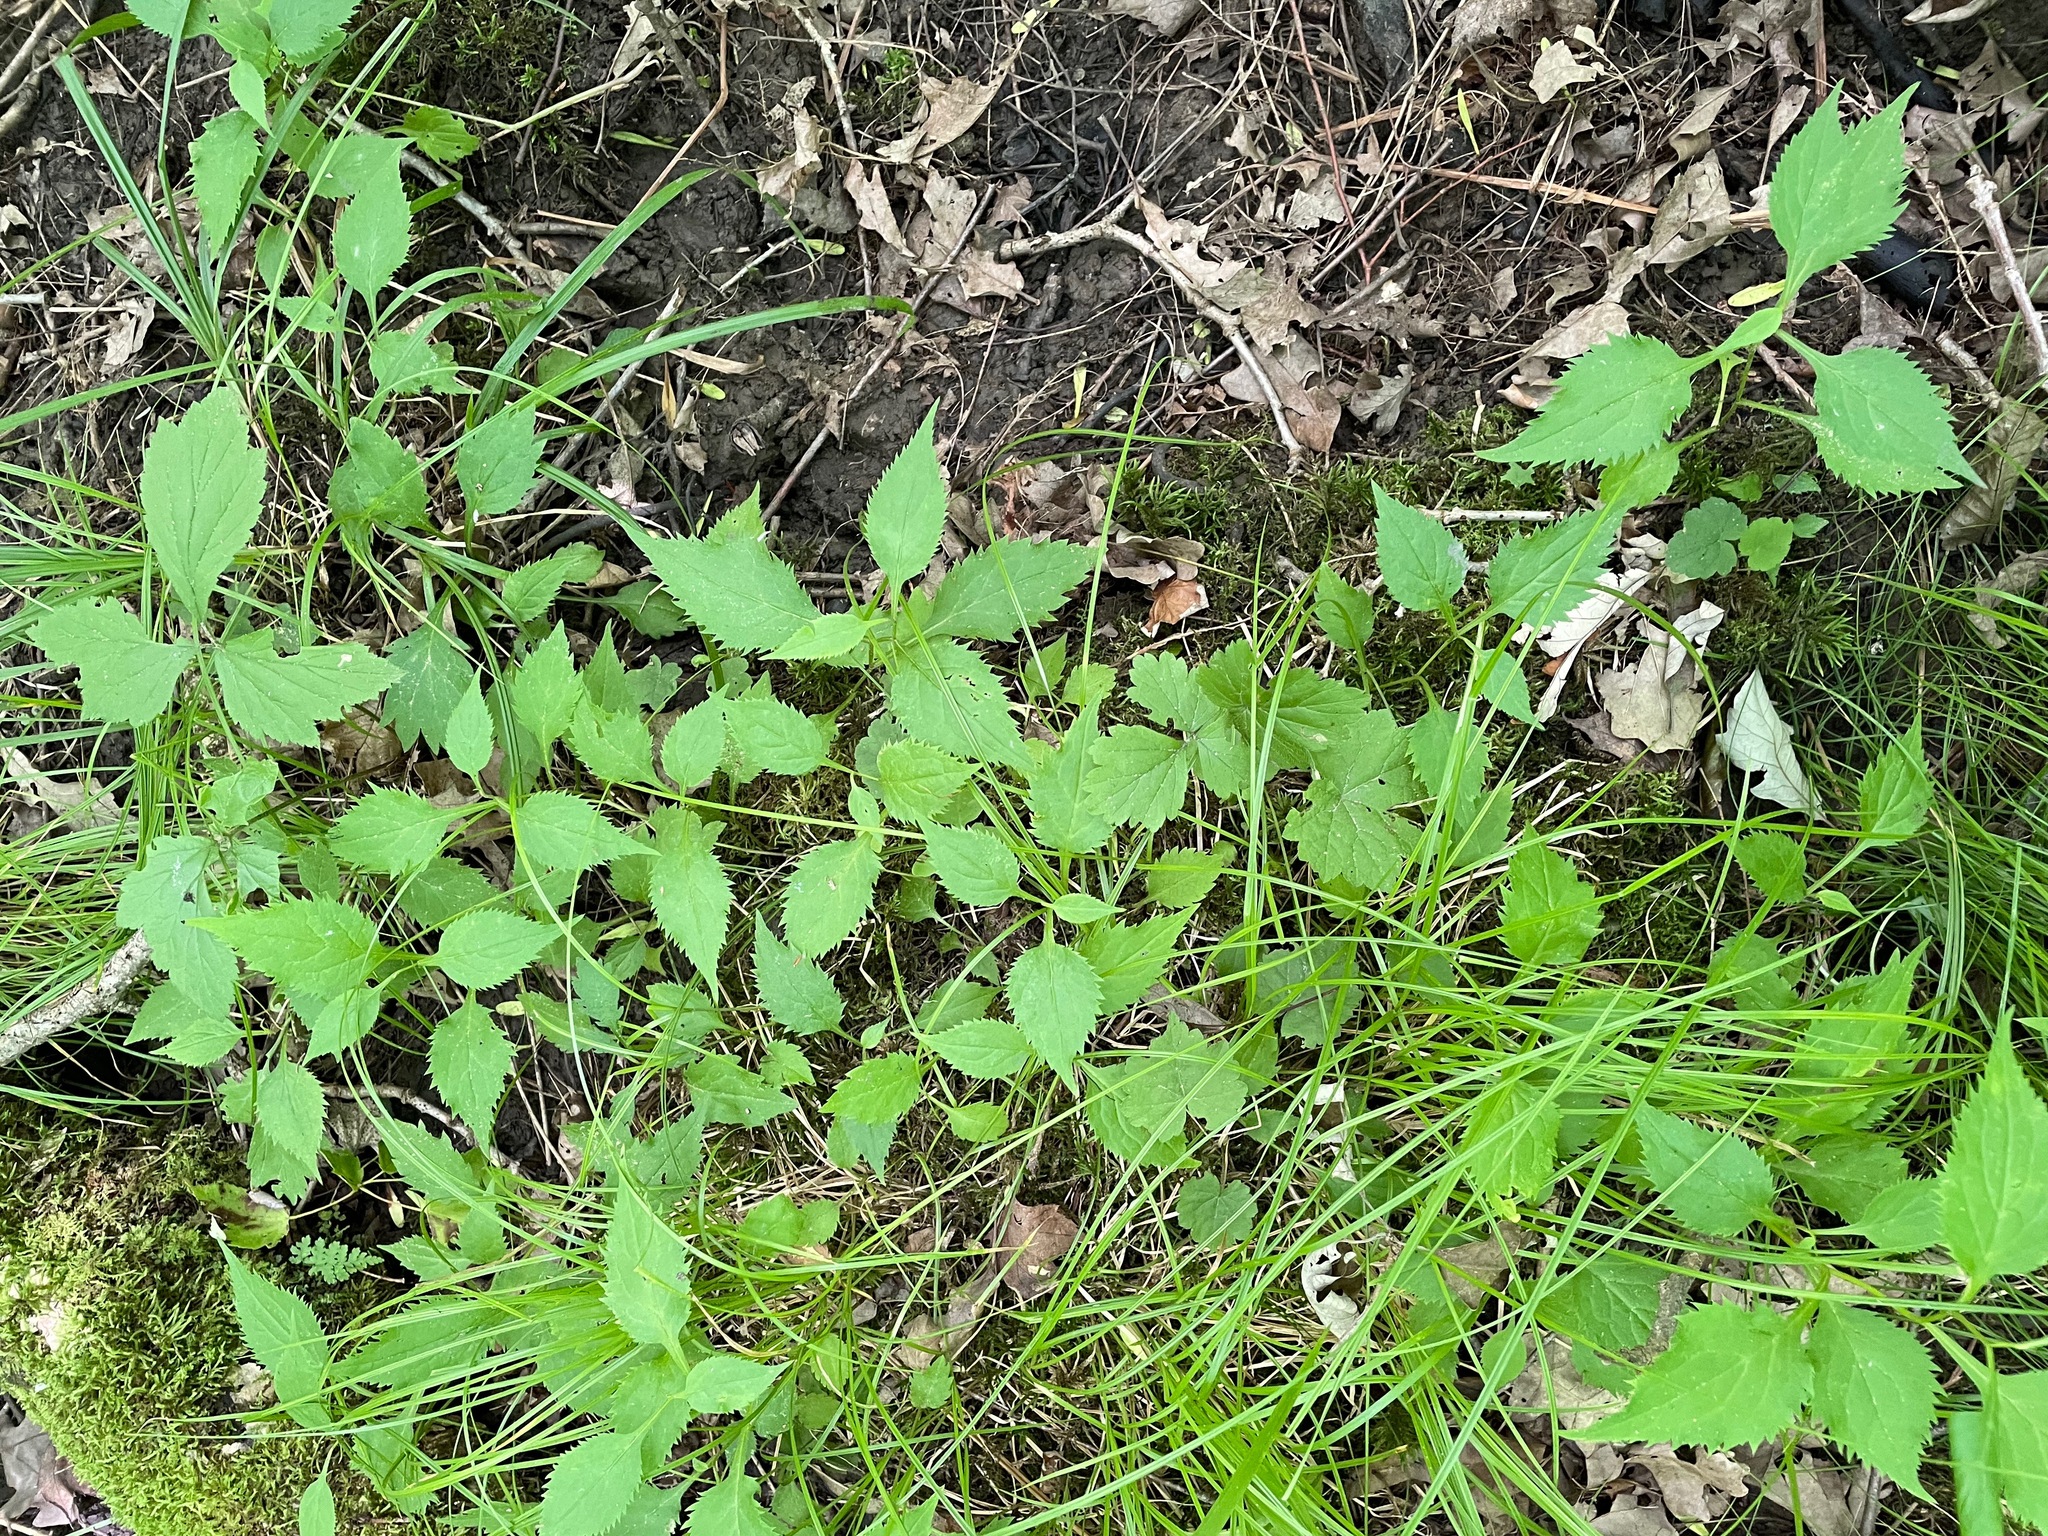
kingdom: Plantae
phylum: Tracheophyta
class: Magnoliopsida
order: Asterales
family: Asteraceae
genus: Solidago
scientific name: Solidago flexicaulis
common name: Zig-zag goldenrod
